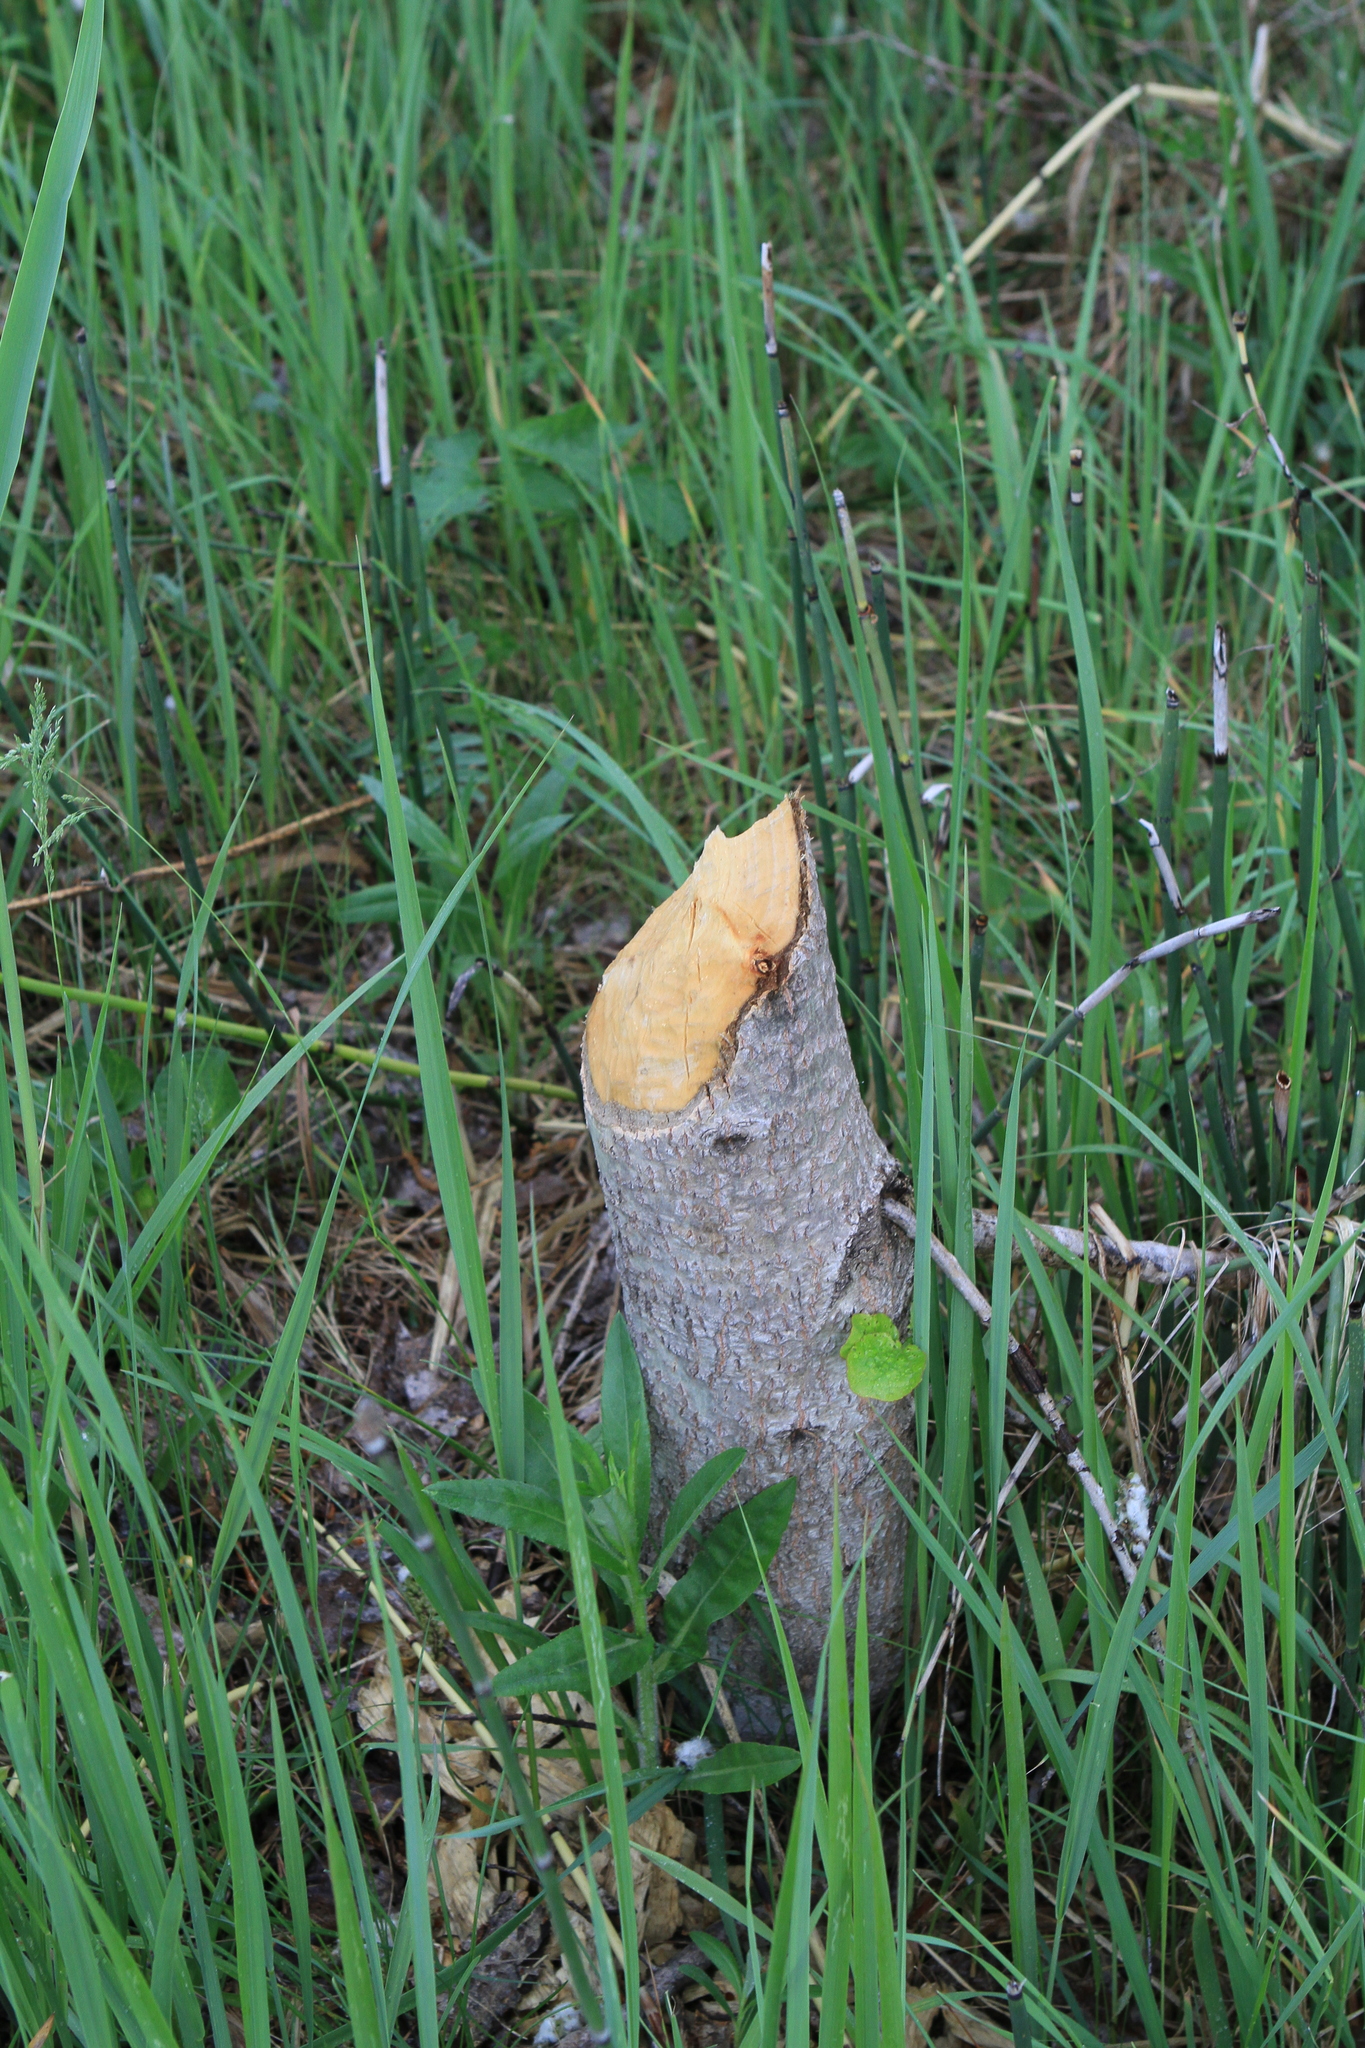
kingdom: Plantae
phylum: Tracheophyta
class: Magnoliopsida
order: Malpighiales
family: Salicaceae
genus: Populus
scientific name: Populus tremula
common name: European aspen
